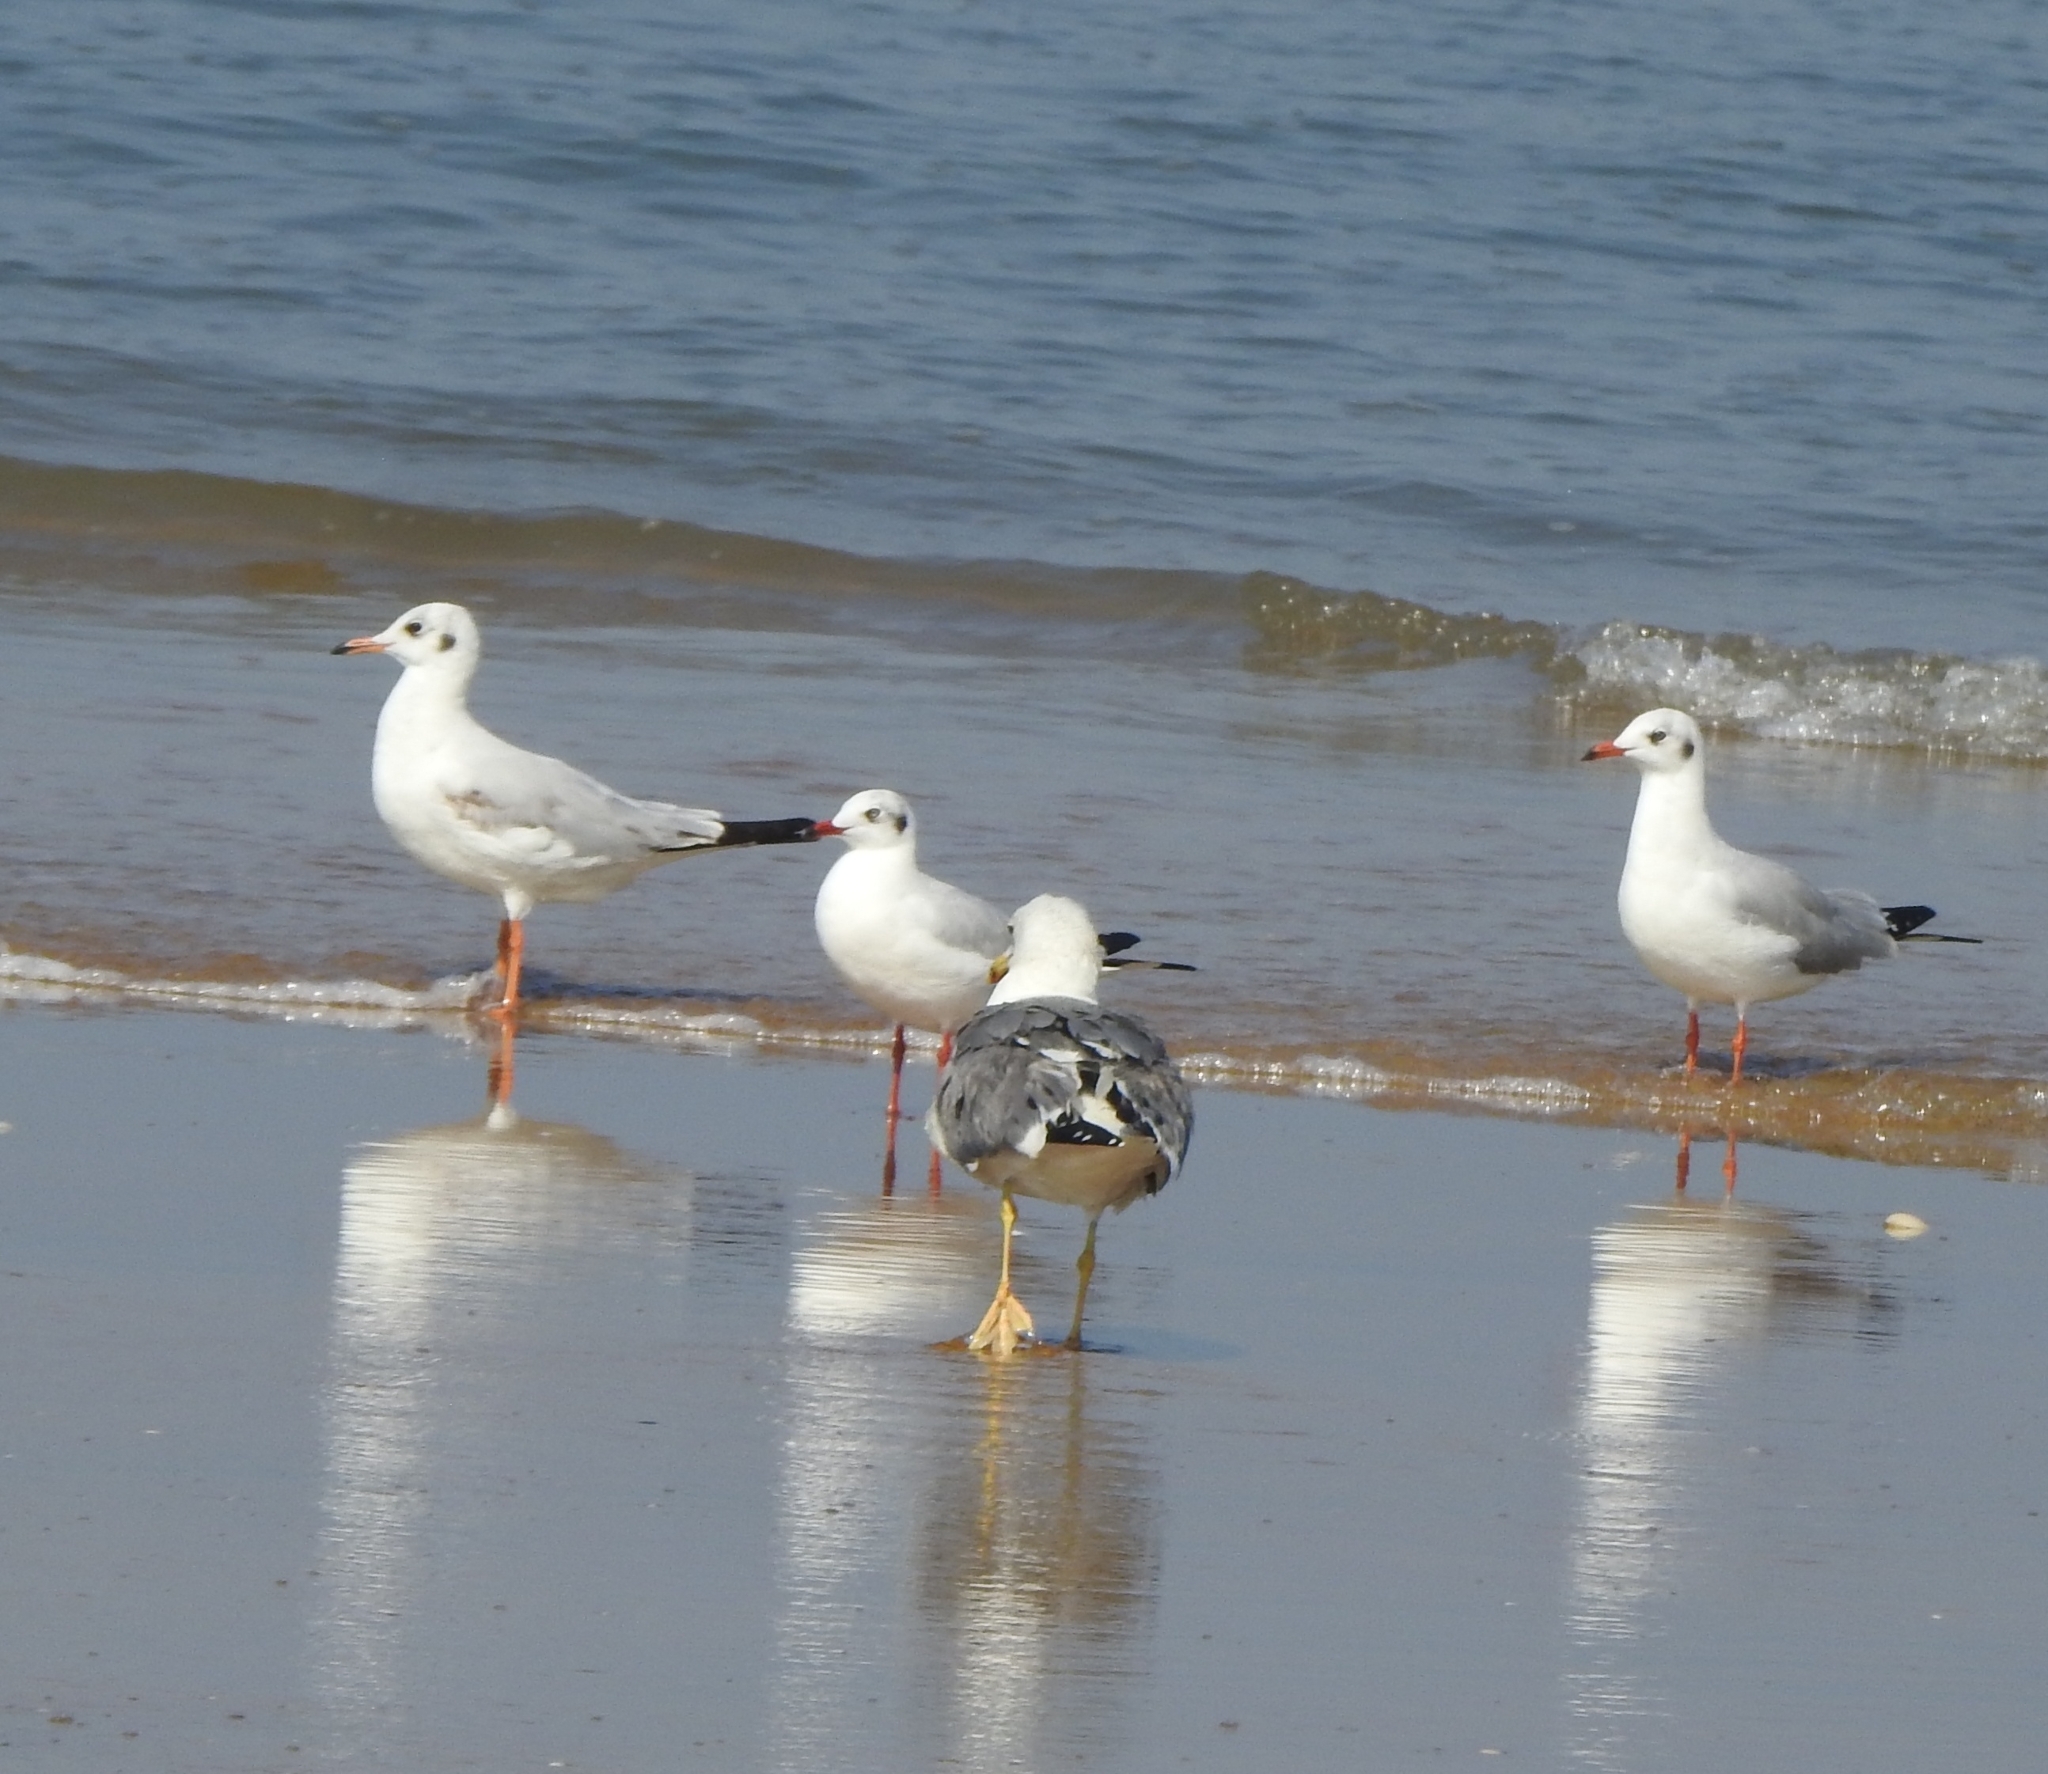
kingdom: Animalia
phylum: Chordata
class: Aves
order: Charadriiformes
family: Laridae
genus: Chroicocephalus
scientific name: Chroicocephalus brunnicephalus
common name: Brown-headed gull
